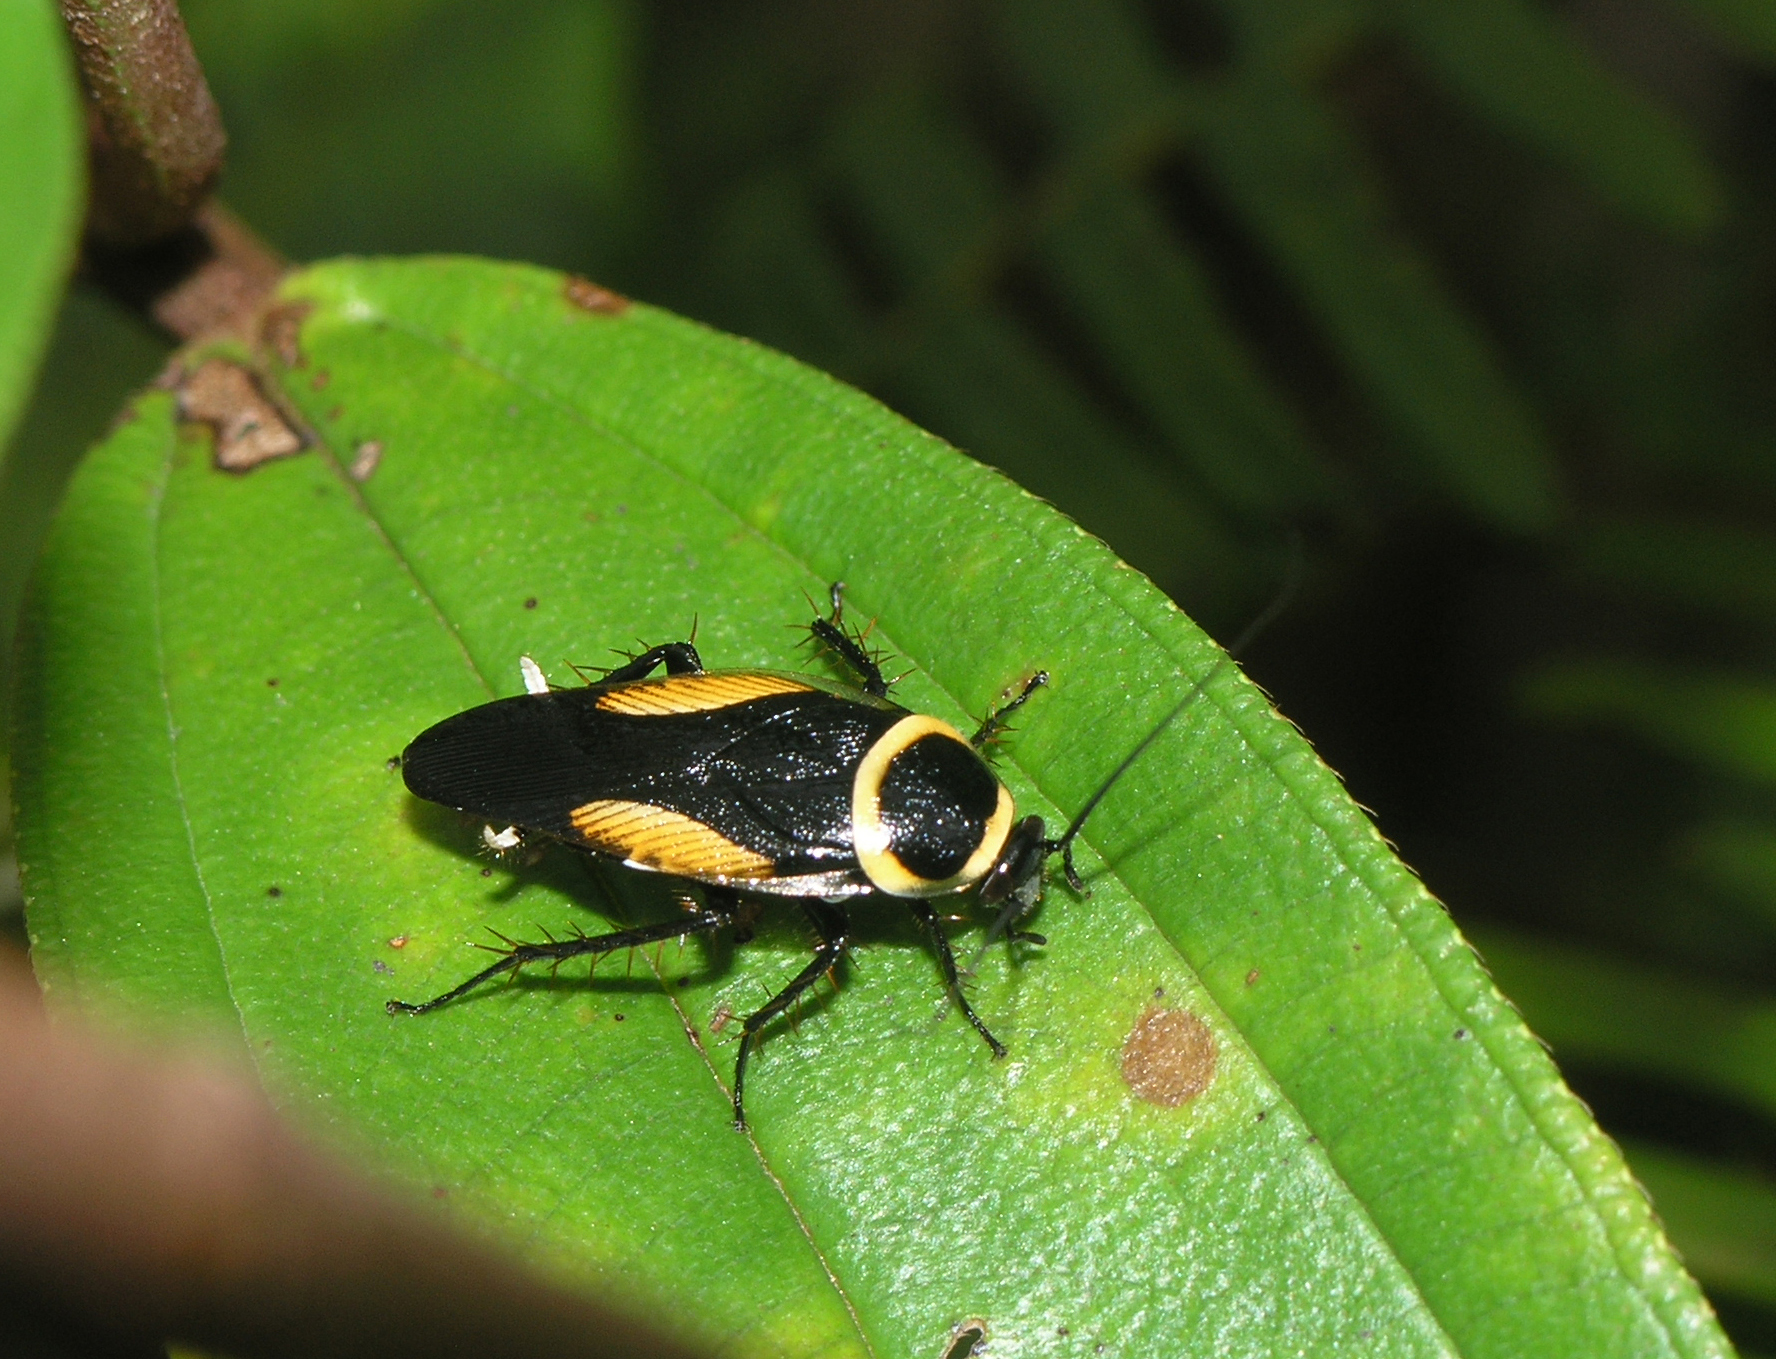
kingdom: Animalia
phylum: Arthropoda
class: Insecta
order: Blattodea
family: Ectobiidae
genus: Hemithyrsocera
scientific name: Hemithyrsocera vittata
